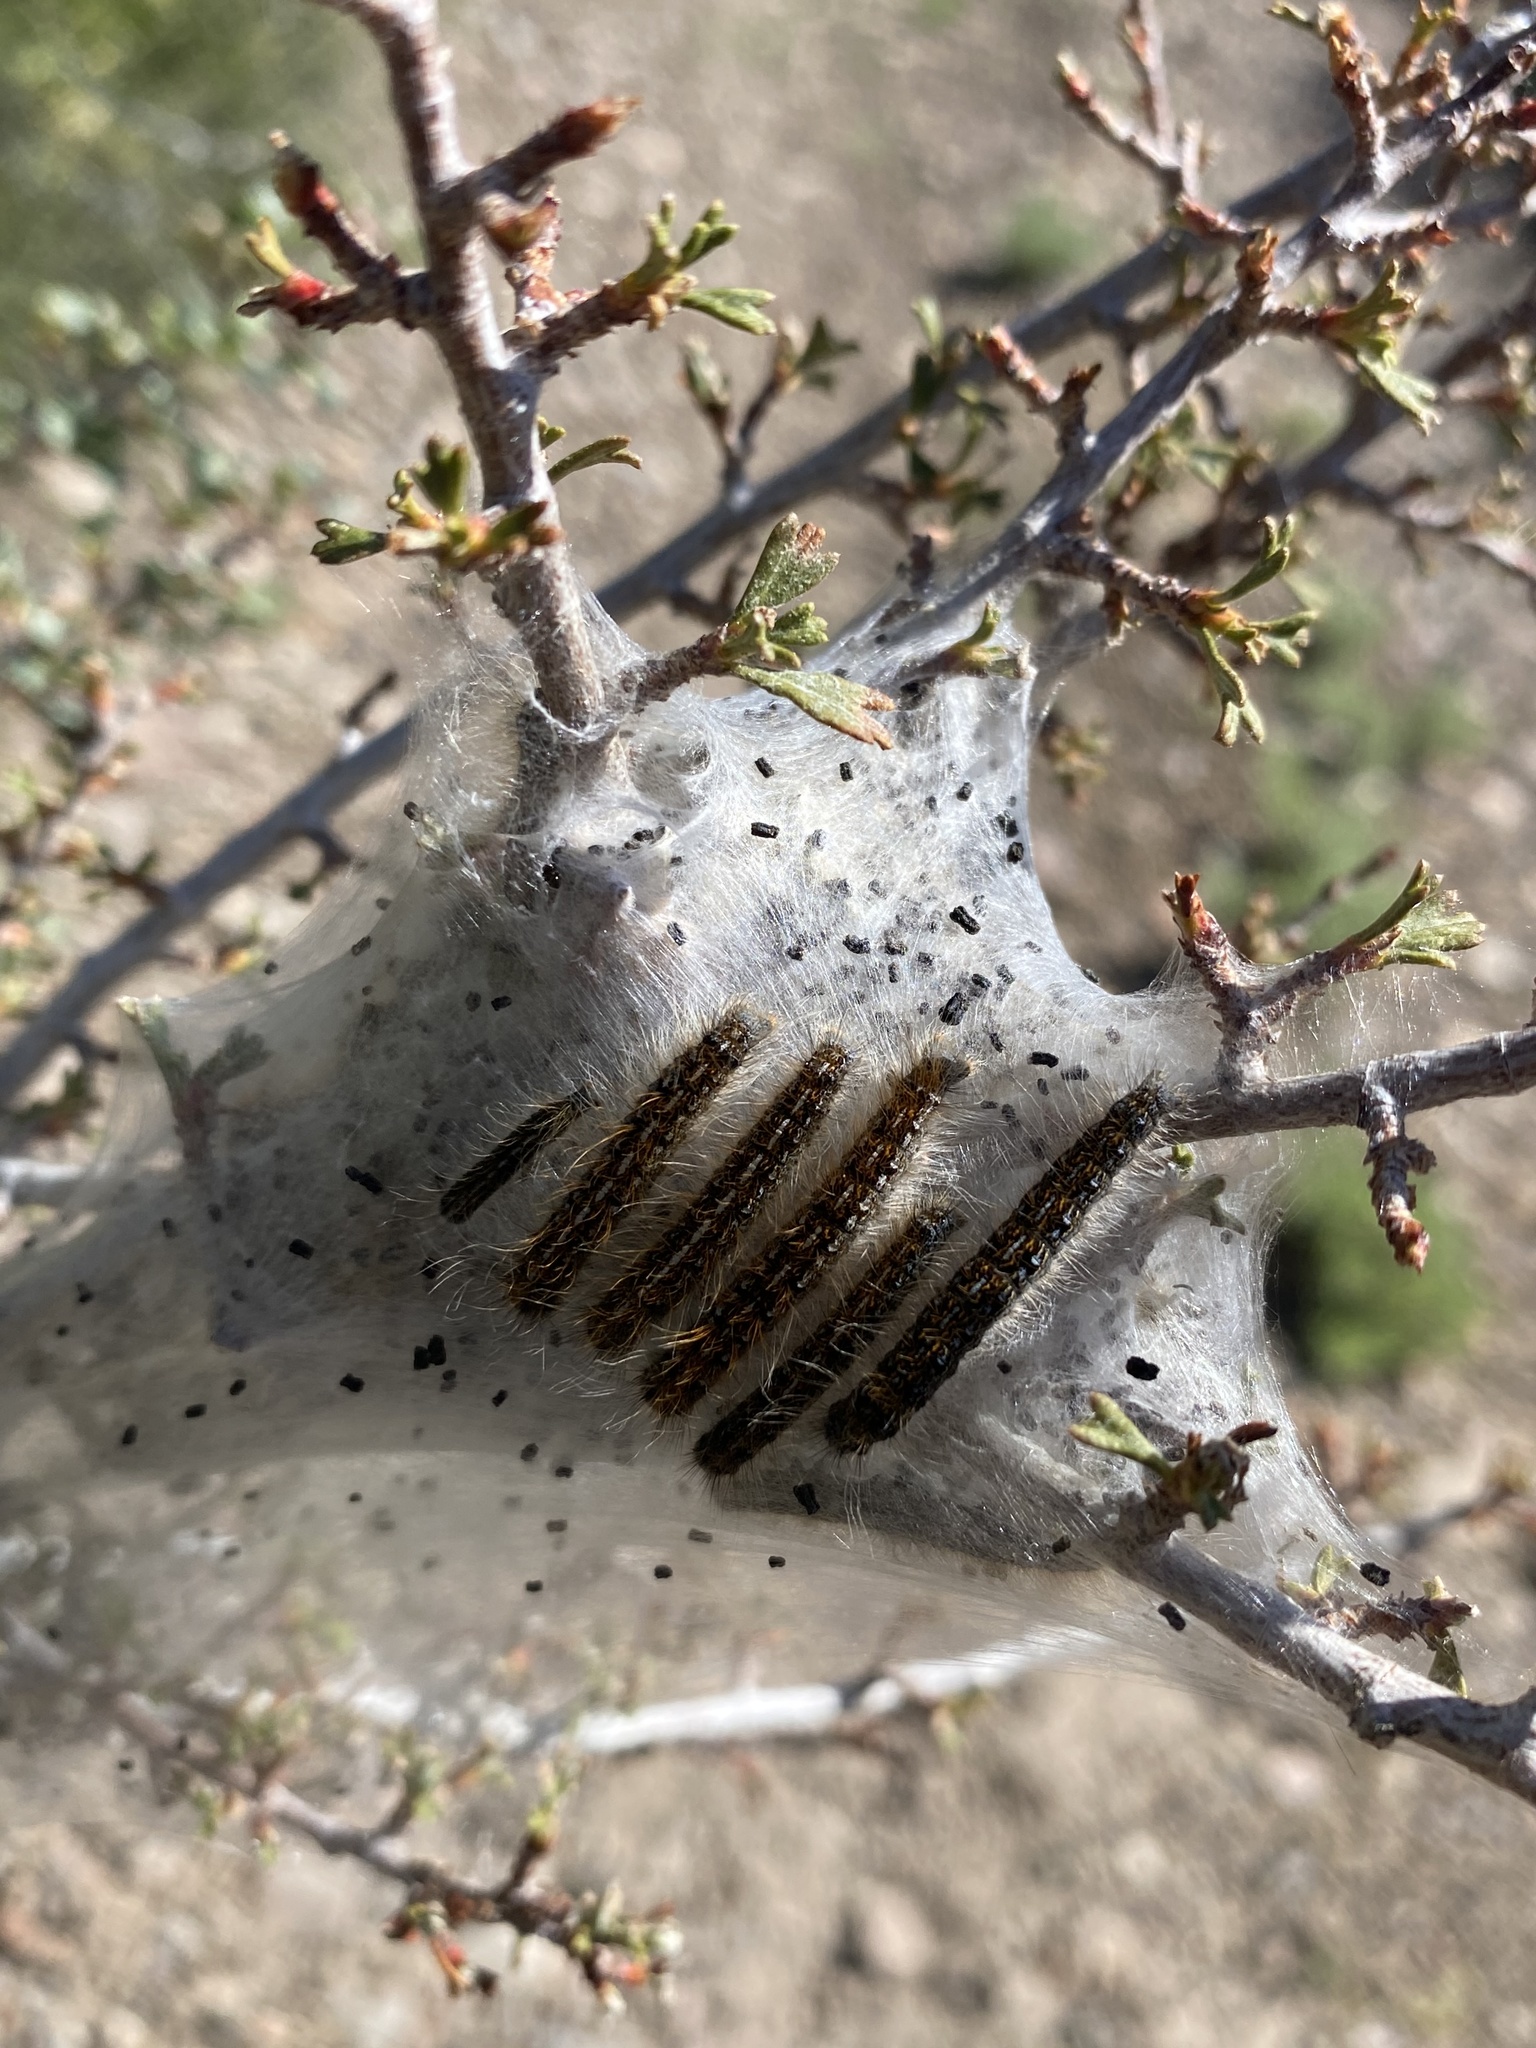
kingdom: Animalia
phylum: Arthropoda
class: Insecta
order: Lepidoptera
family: Lasiocampidae
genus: Malacosoma
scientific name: Malacosoma californica
